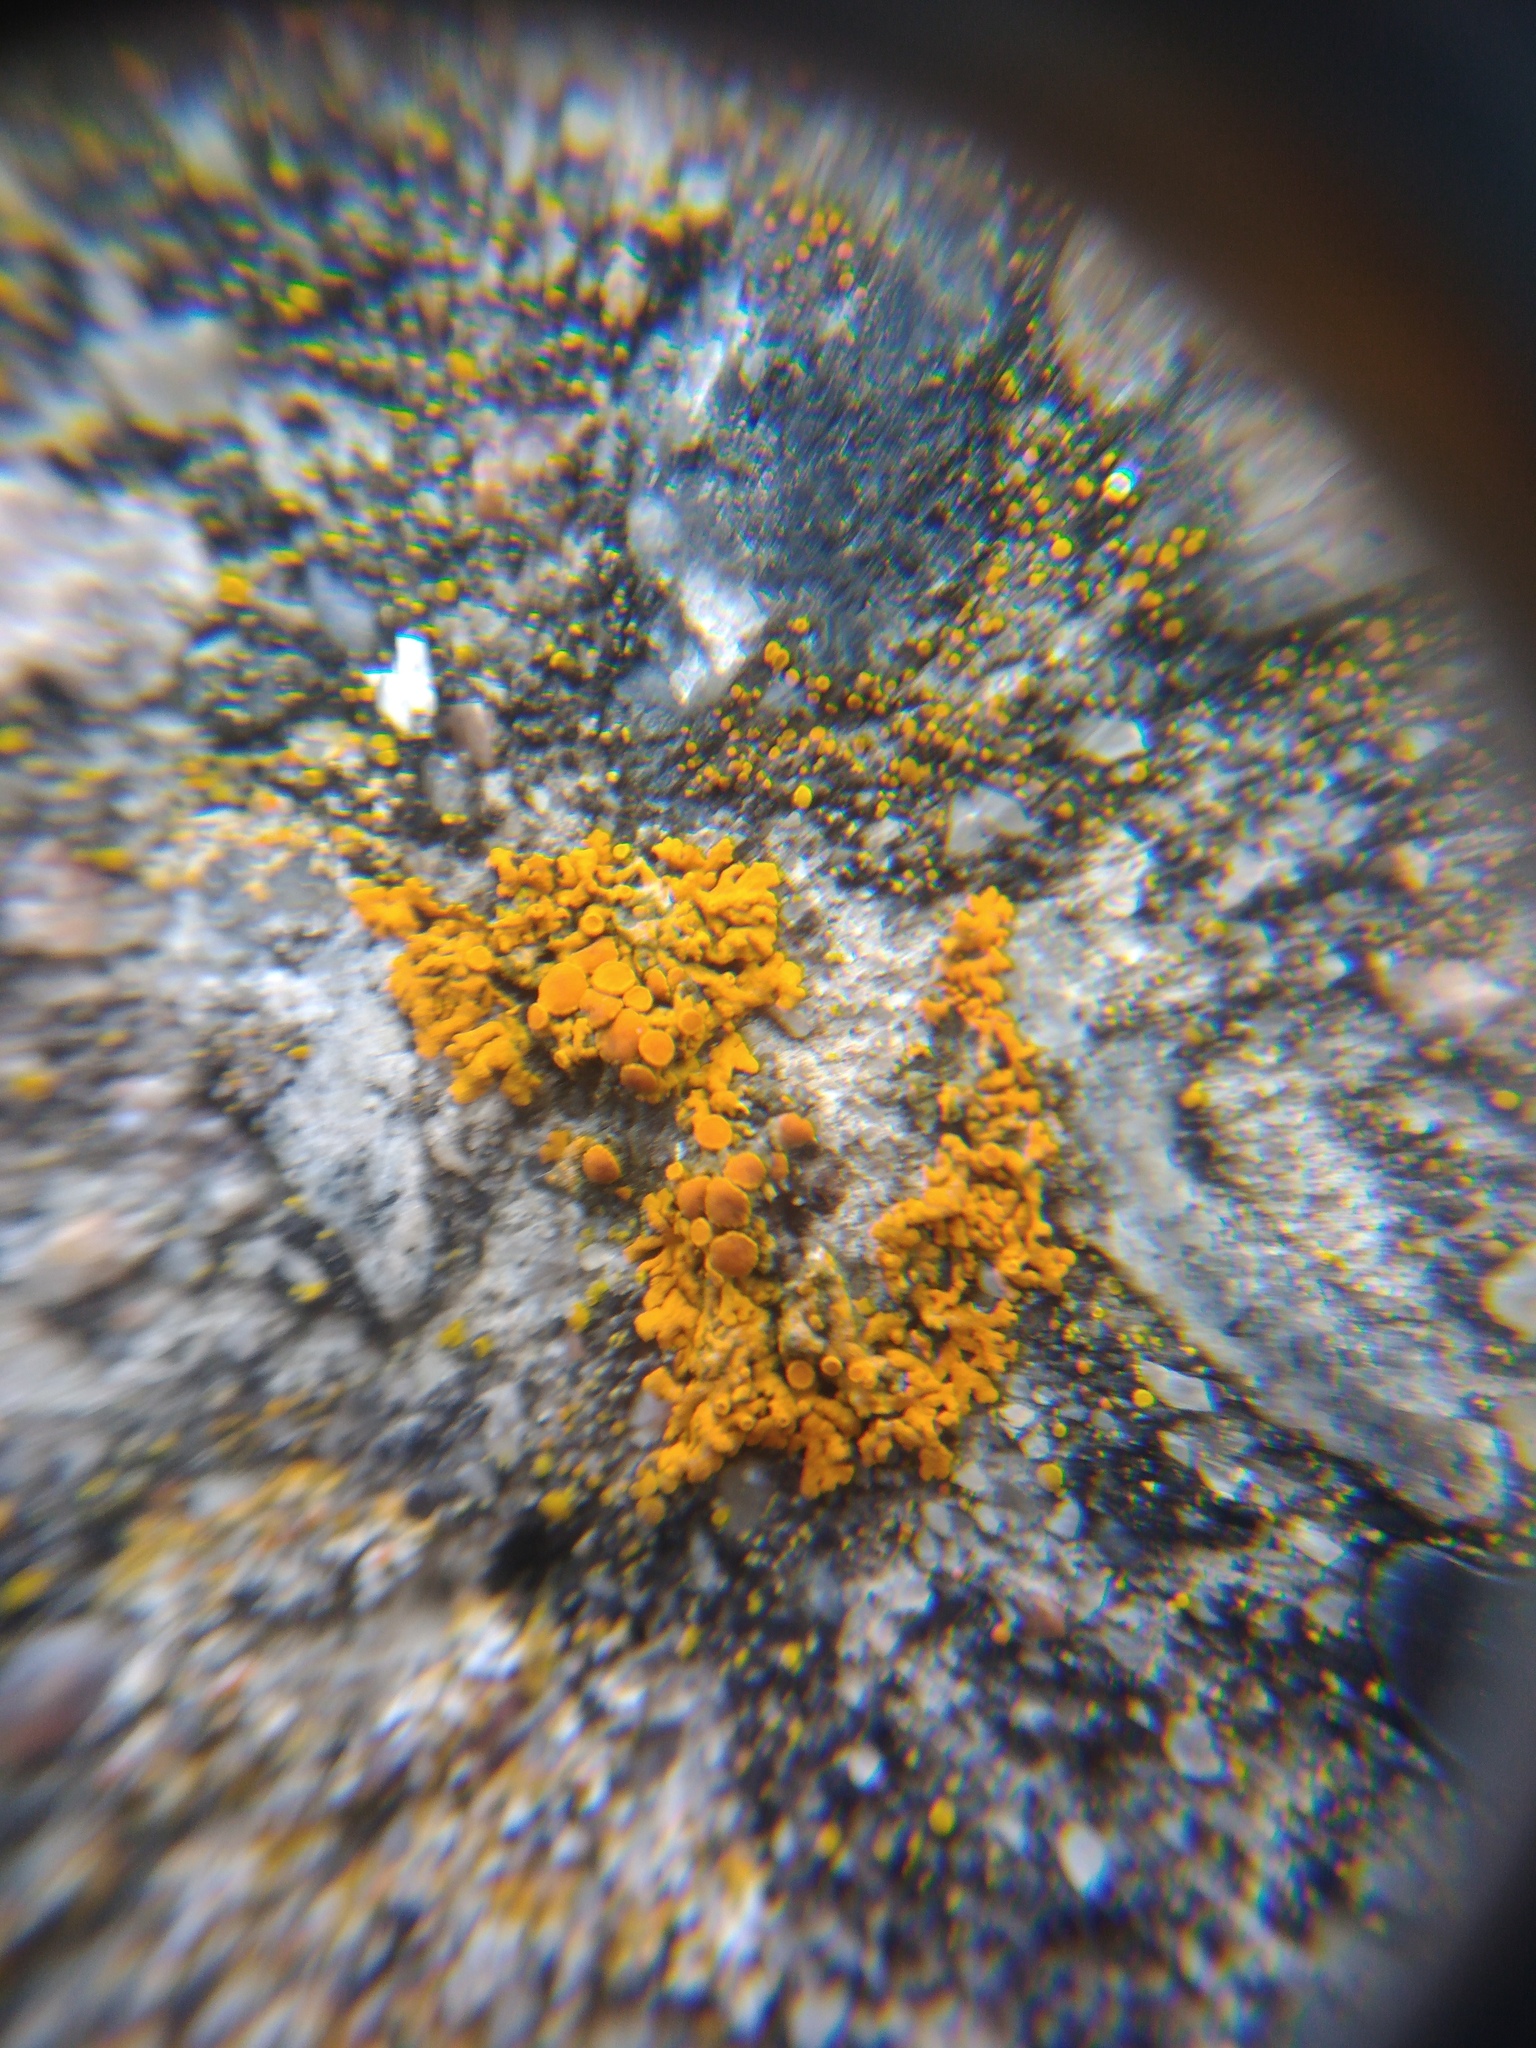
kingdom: Fungi
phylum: Ascomycota
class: Lecanoromycetes
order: Teloschistales
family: Teloschistaceae
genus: Xanthoria
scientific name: Xanthoria elegans
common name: Elegant sunburst lichen
